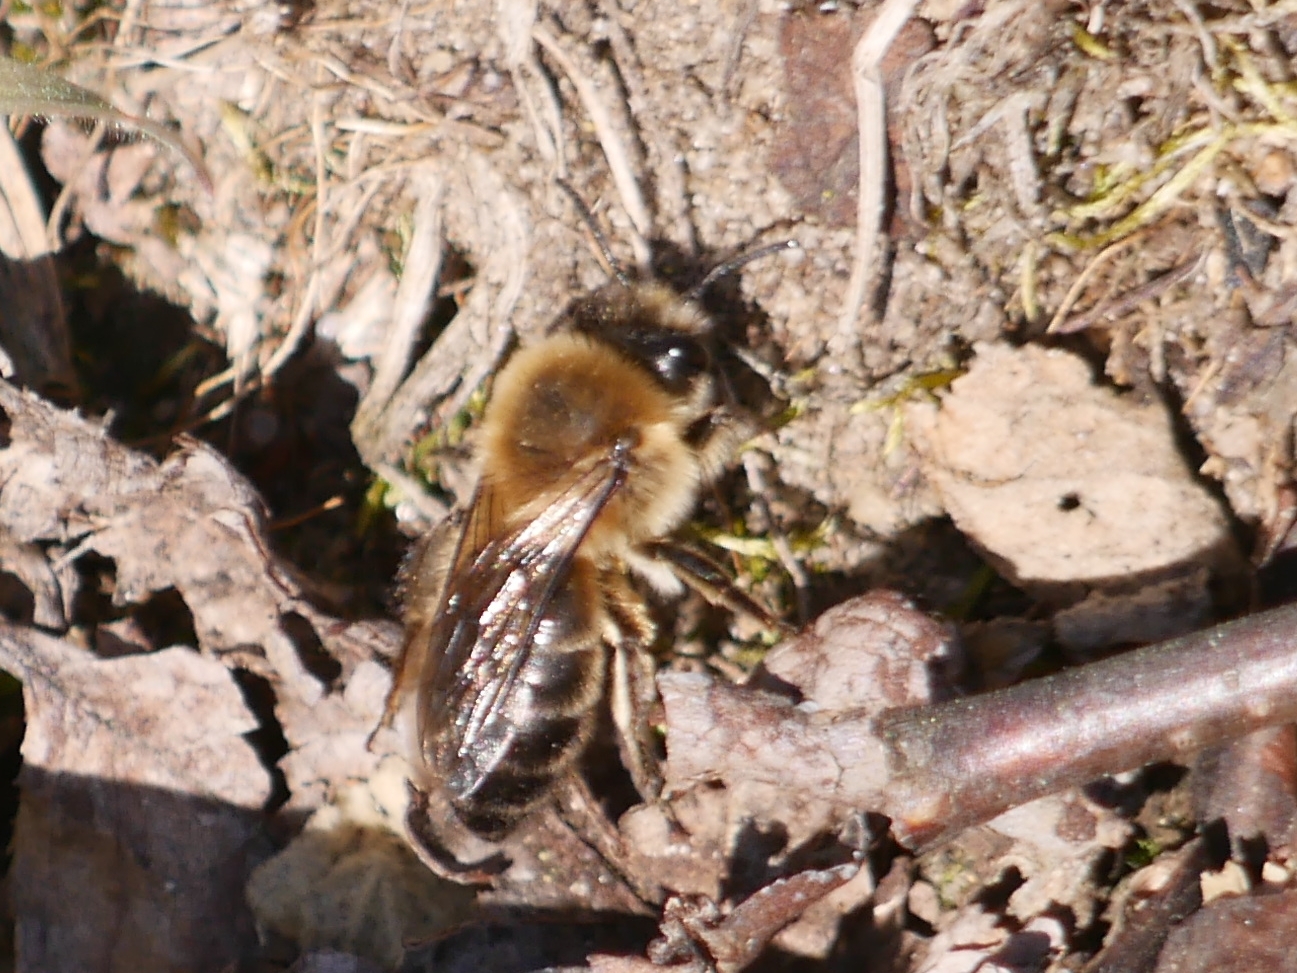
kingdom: Animalia
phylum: Arthropoda
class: Insecta
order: Hymenoptera
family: Colletidae
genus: Colletes
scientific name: Colletes cunicularius
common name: Early colletes
